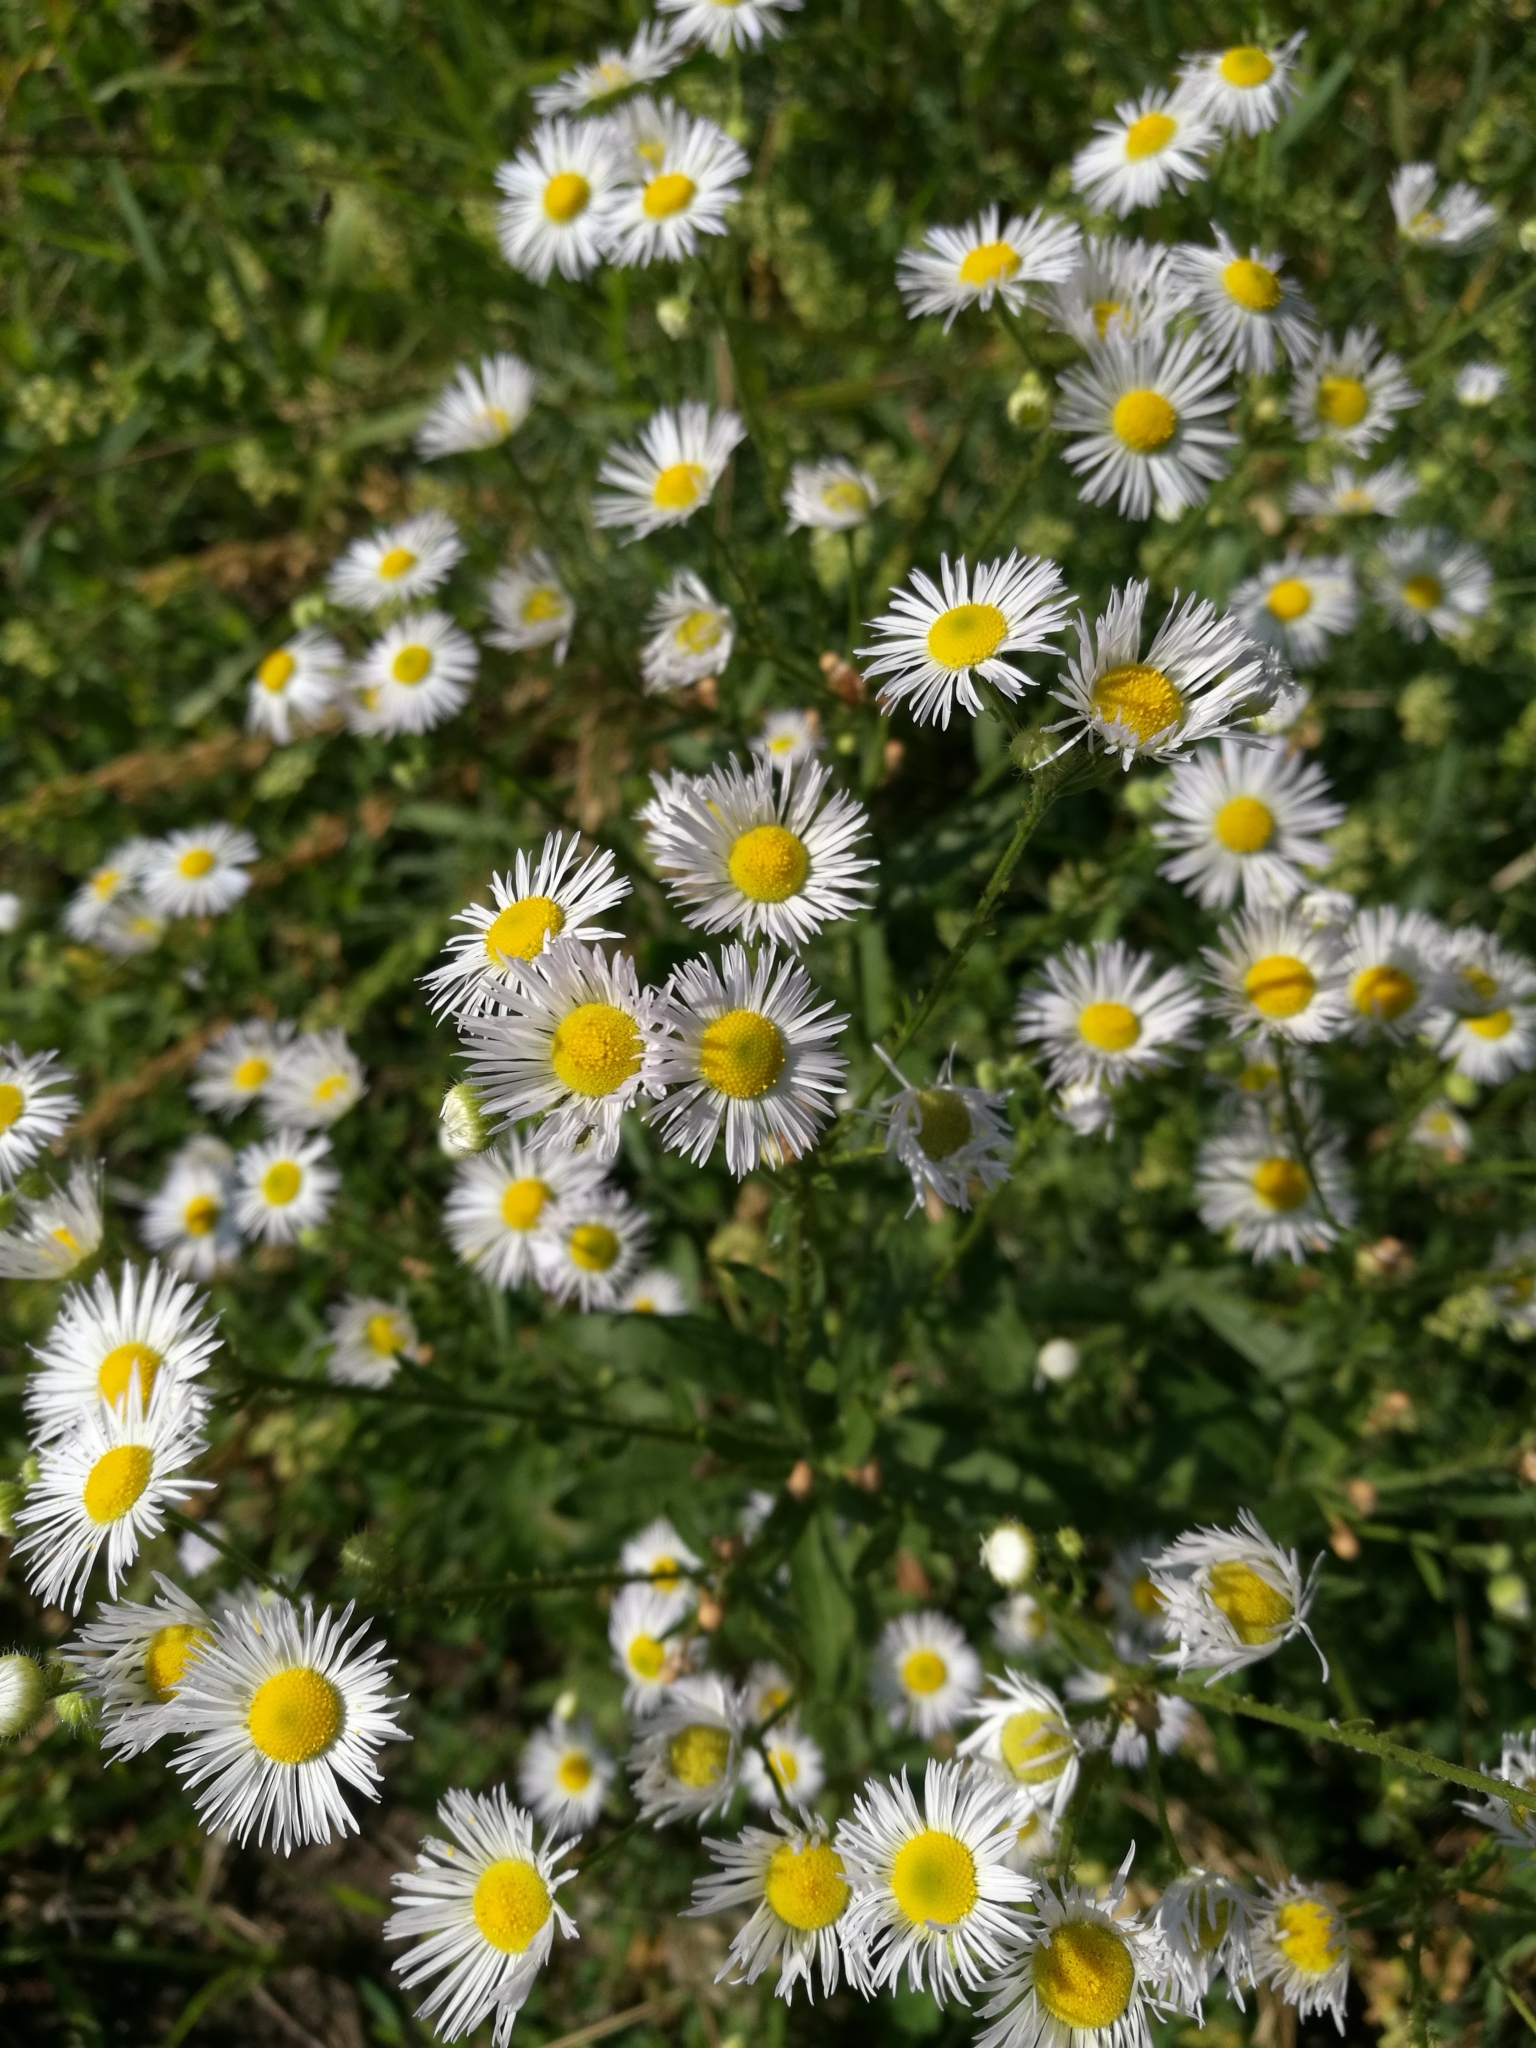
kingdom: Plantae
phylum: Tracheophyta
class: Magnoliopsida
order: Asterales
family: Asteraceae
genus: Erigeron
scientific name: Erigeron annuus
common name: Tall fleabane
